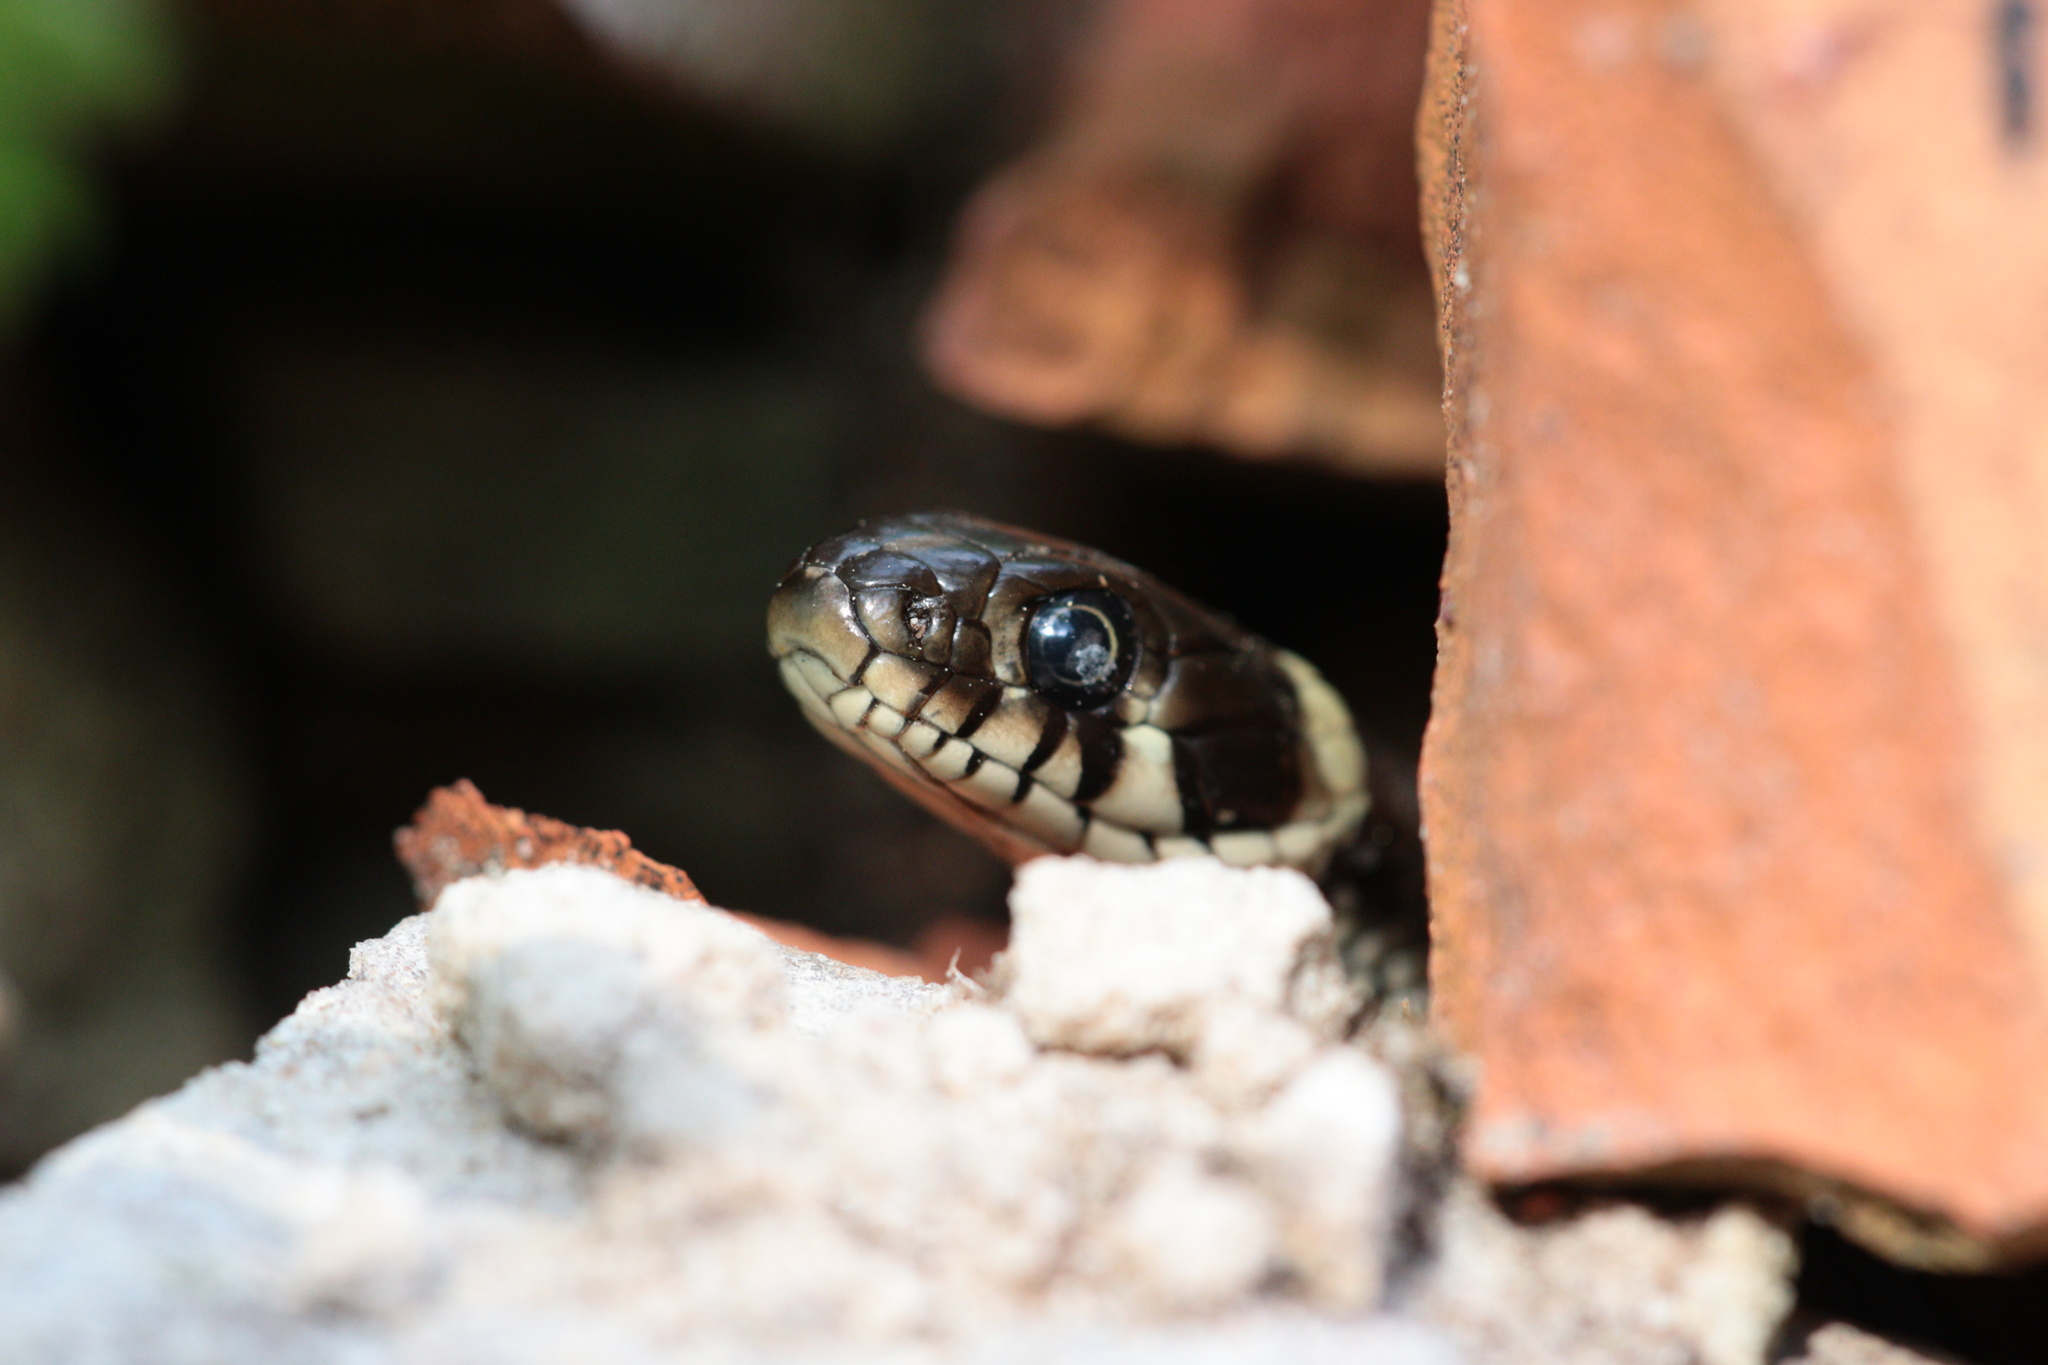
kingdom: Animalia
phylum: Chordata
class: Squamata
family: Colubridae
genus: Natrix
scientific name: Natrix natrix
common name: Grass snake
